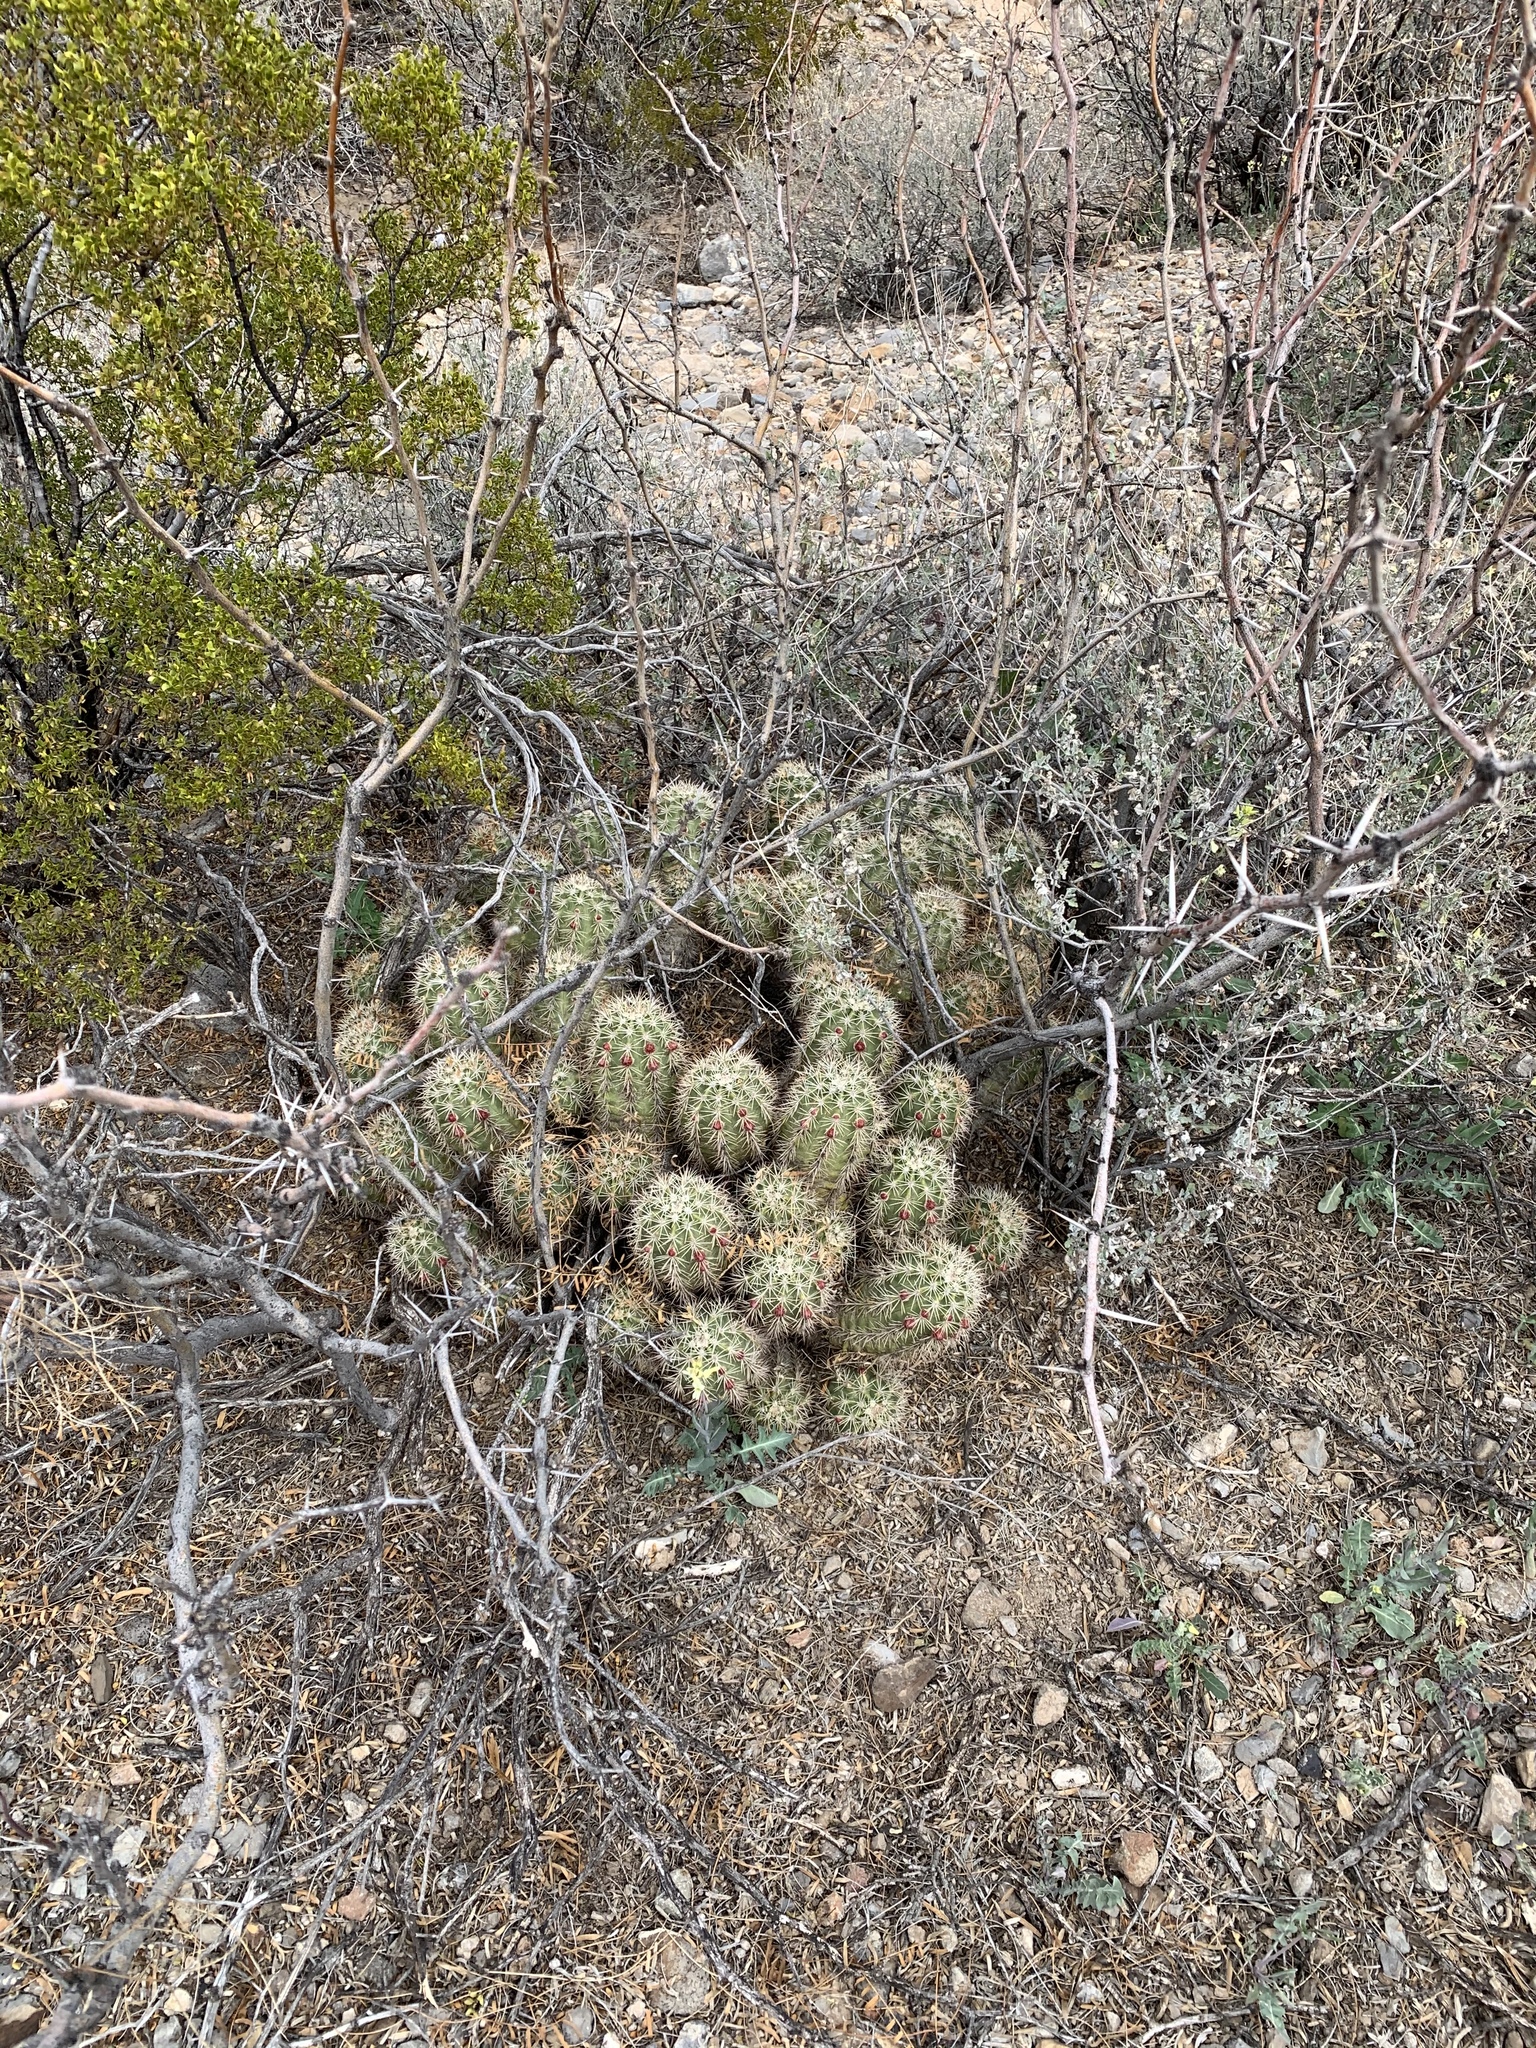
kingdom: Plantae
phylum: Tracheophyta
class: Magnoliopsida
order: Caryophyllales
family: Cactaceae
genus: Echinocereus
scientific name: Echinocereus coccineus
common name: Scarlet hedgehog cactus
